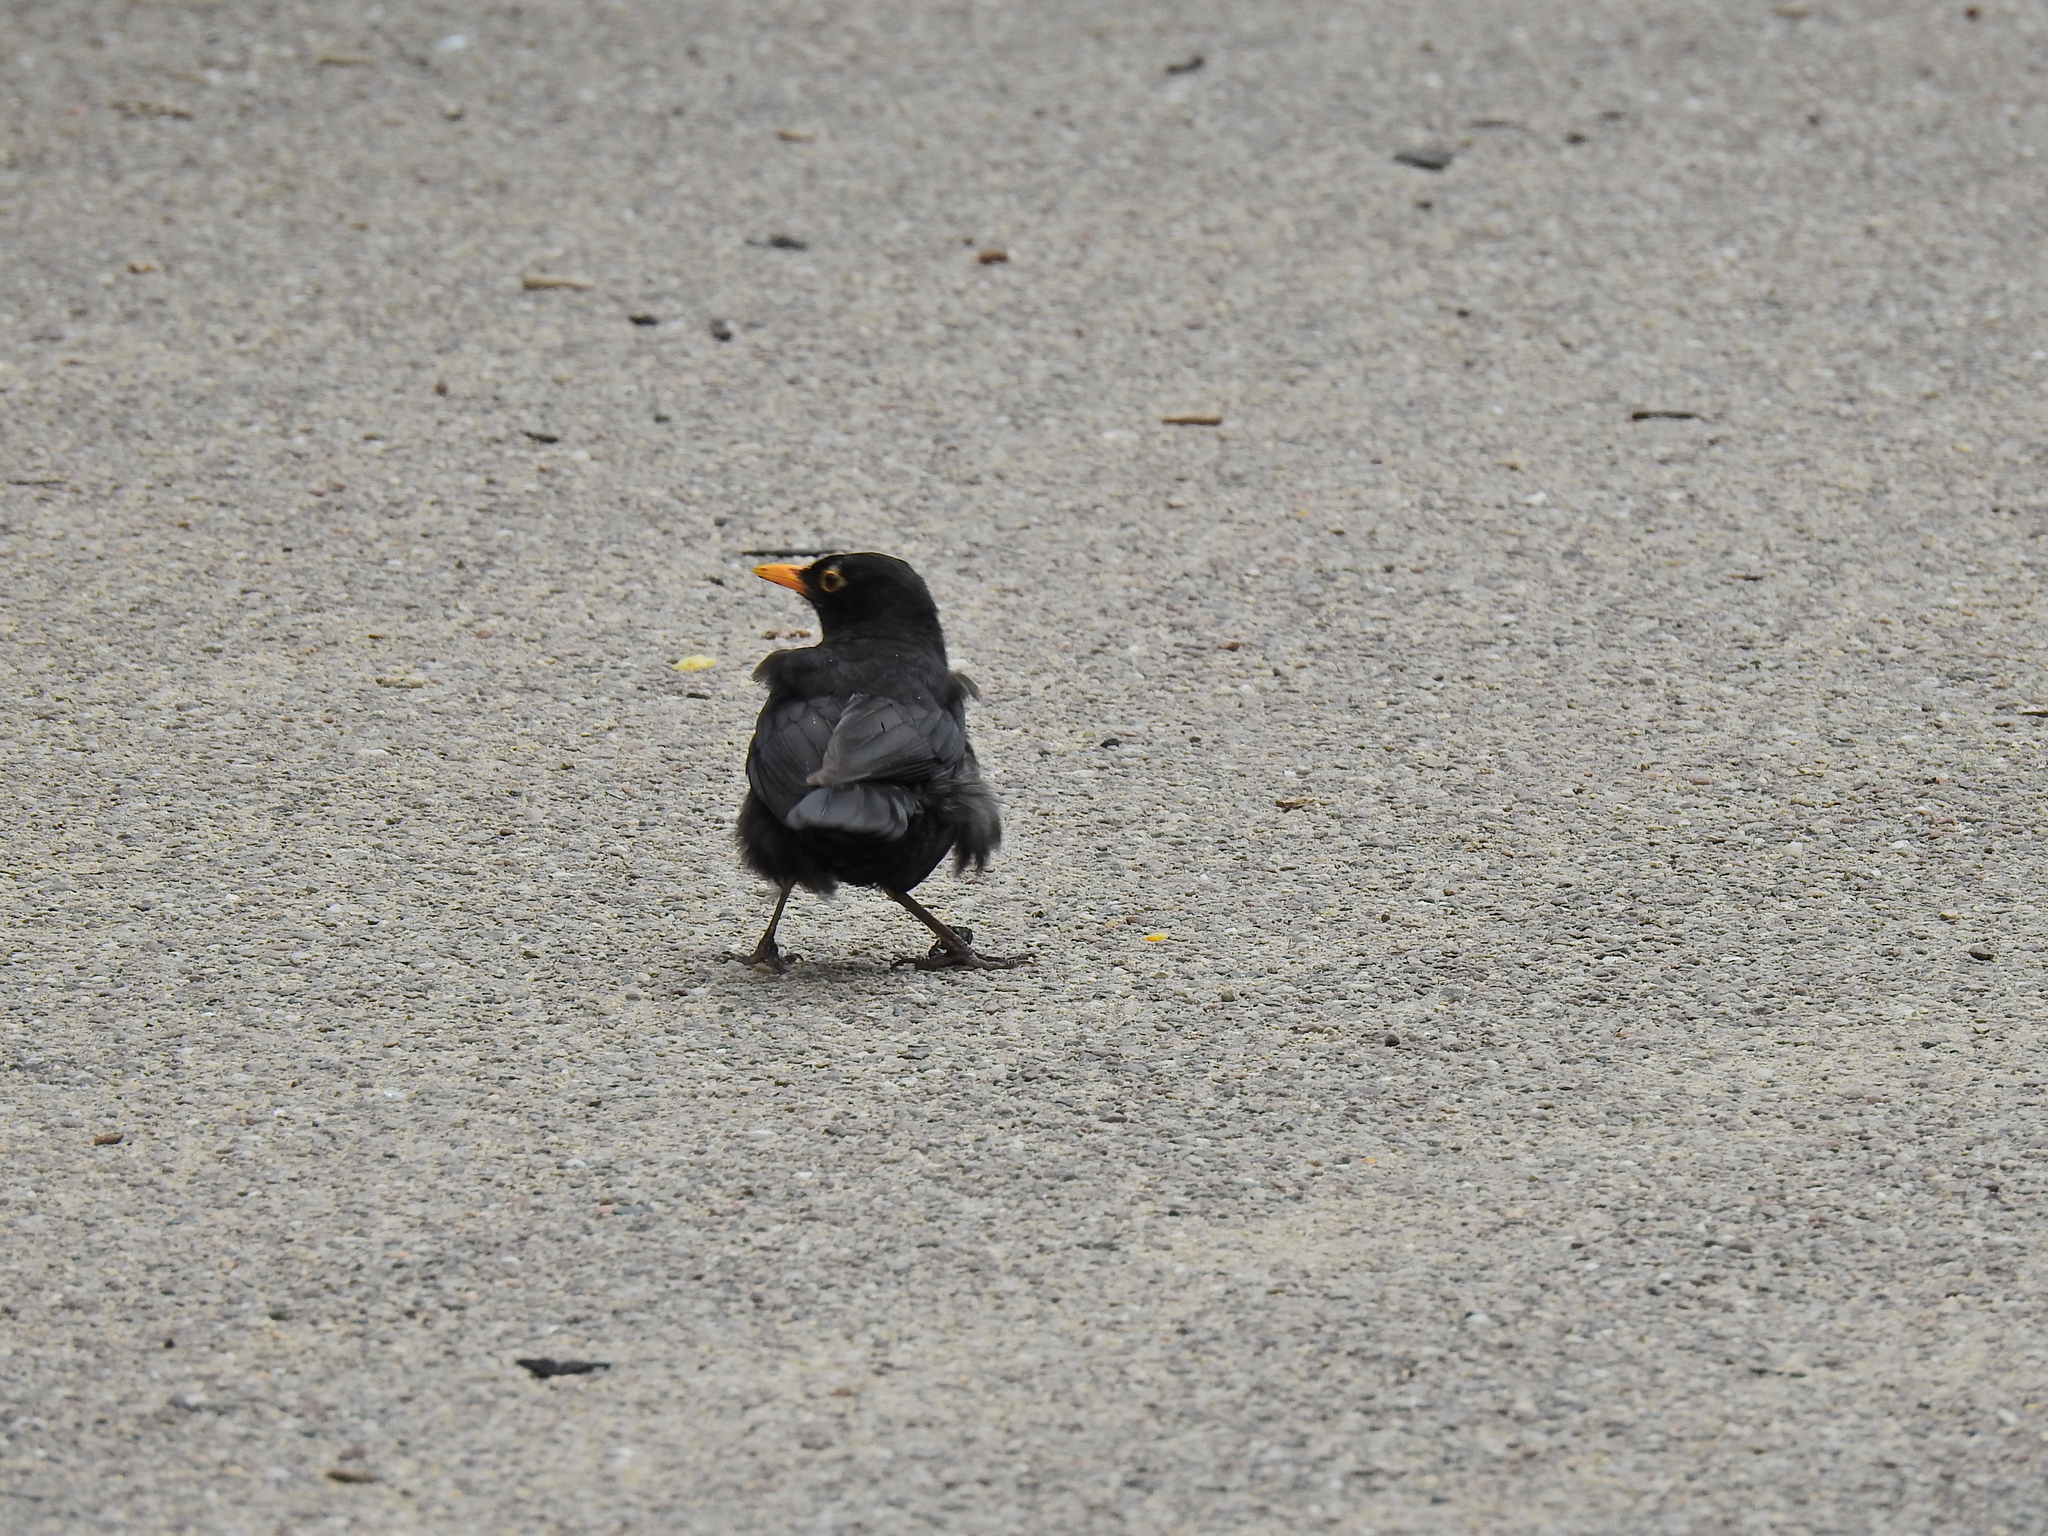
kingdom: Animalia
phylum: Chordata
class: Aves
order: Passeriformes
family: Turdidae
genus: Turdus
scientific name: Turdus merula
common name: Common blackbird
